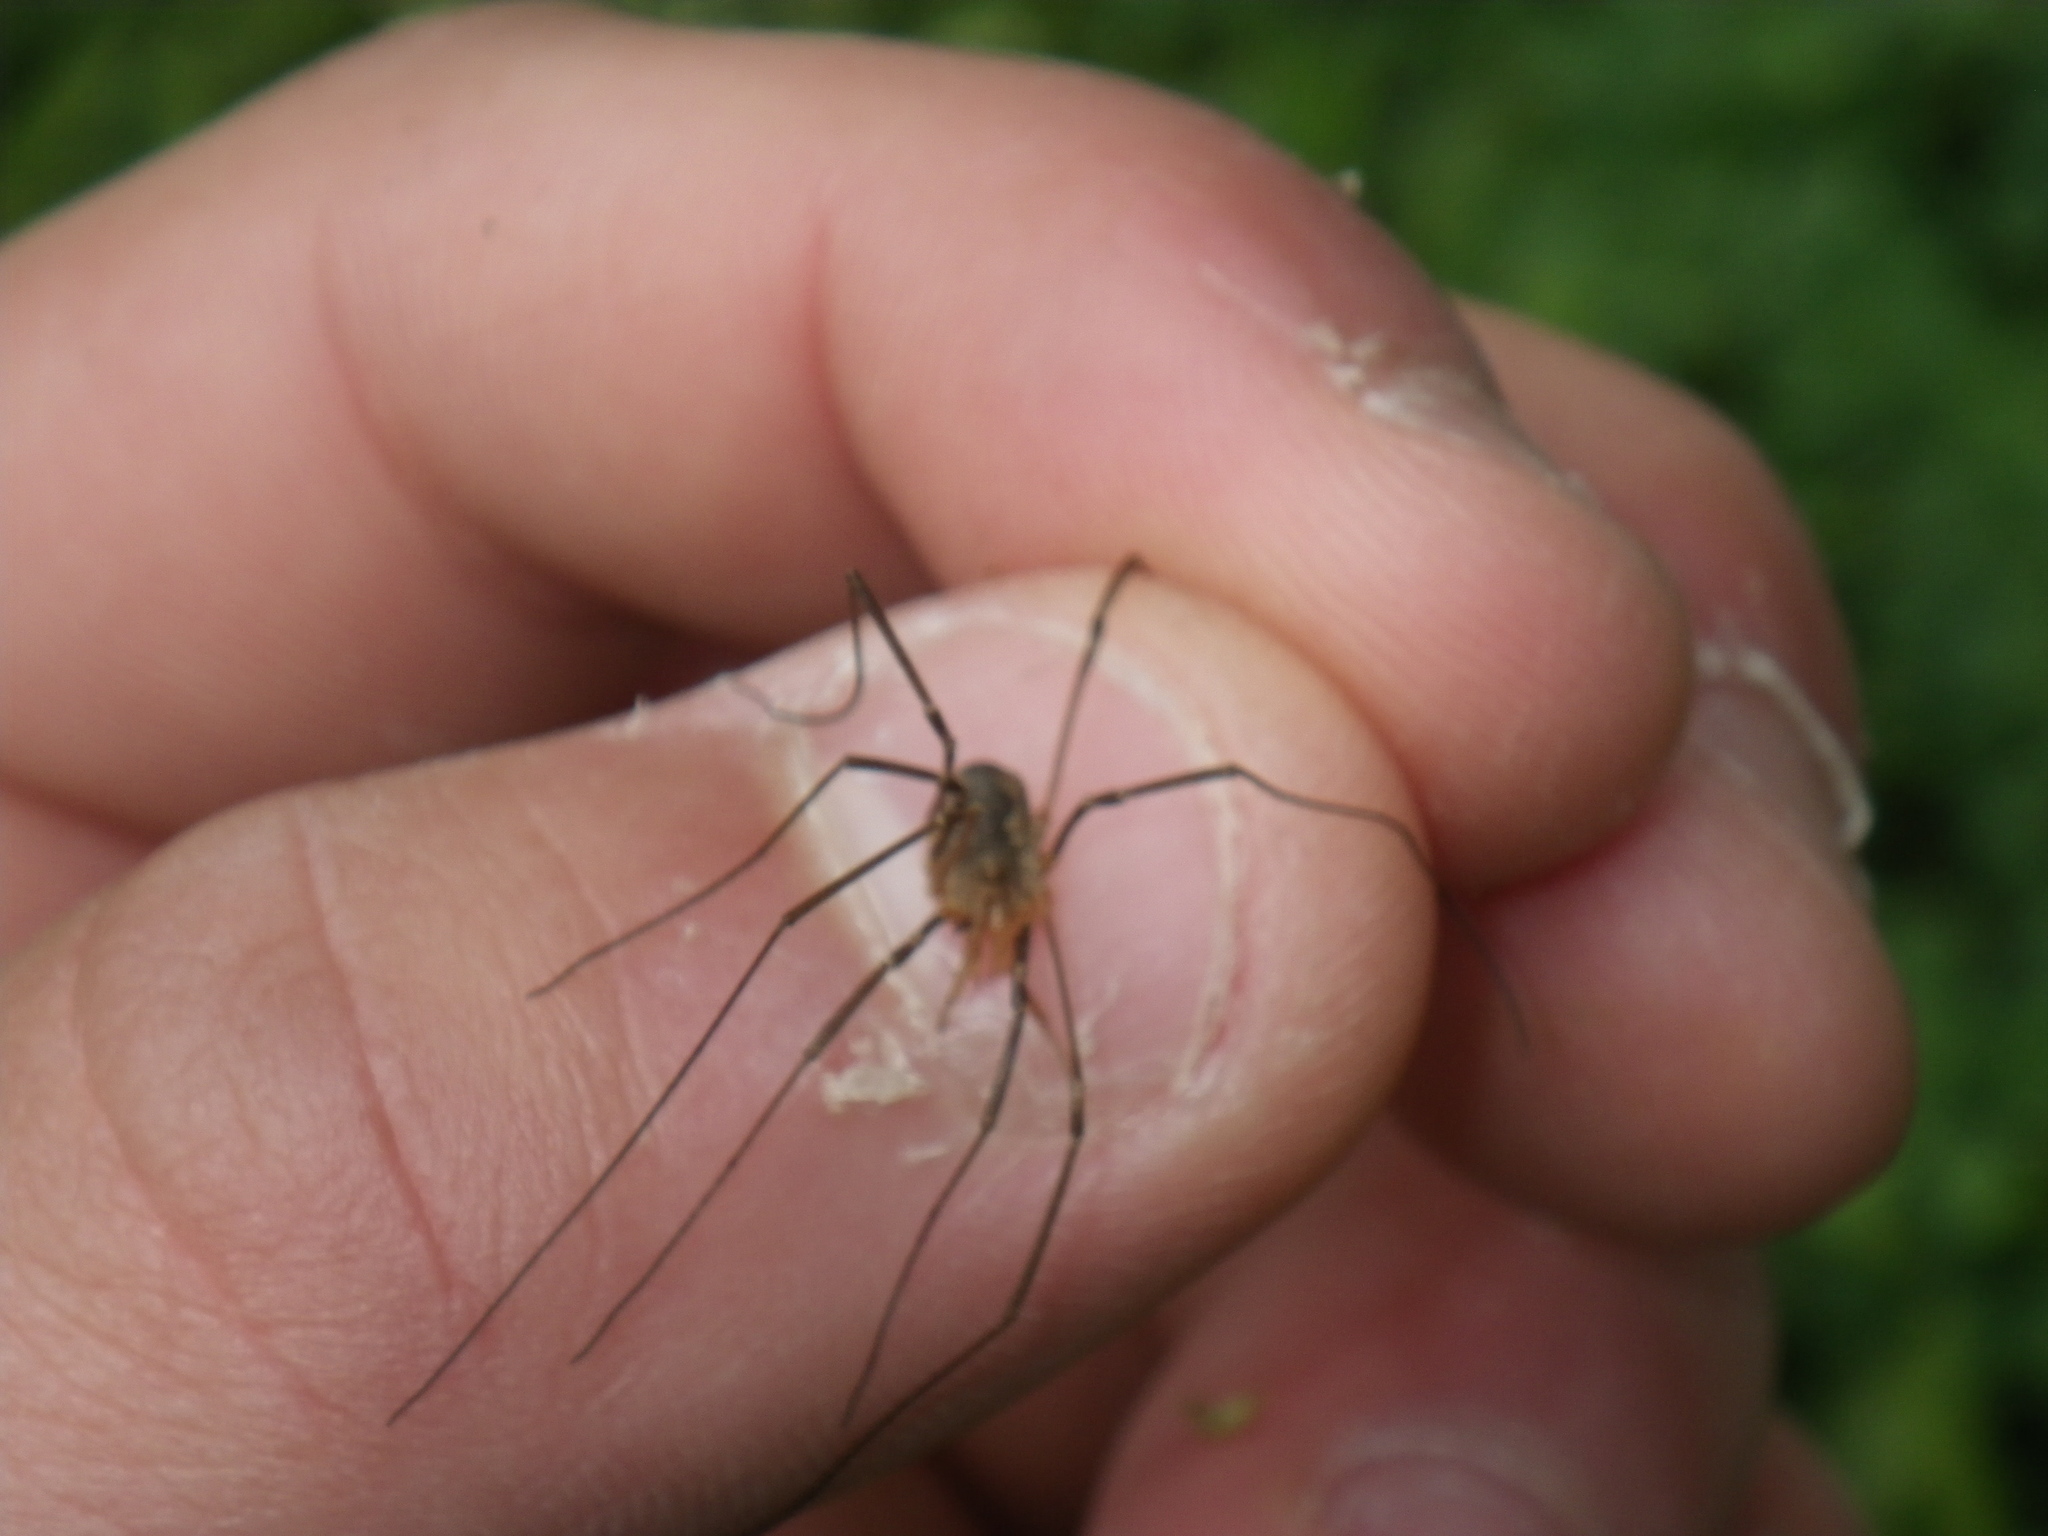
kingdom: Animalia
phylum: Arthropoda
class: Arachnida
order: Opiliones
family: Phalangiidae
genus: Phalangium
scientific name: Phalangium opilio
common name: Daddy longleg
